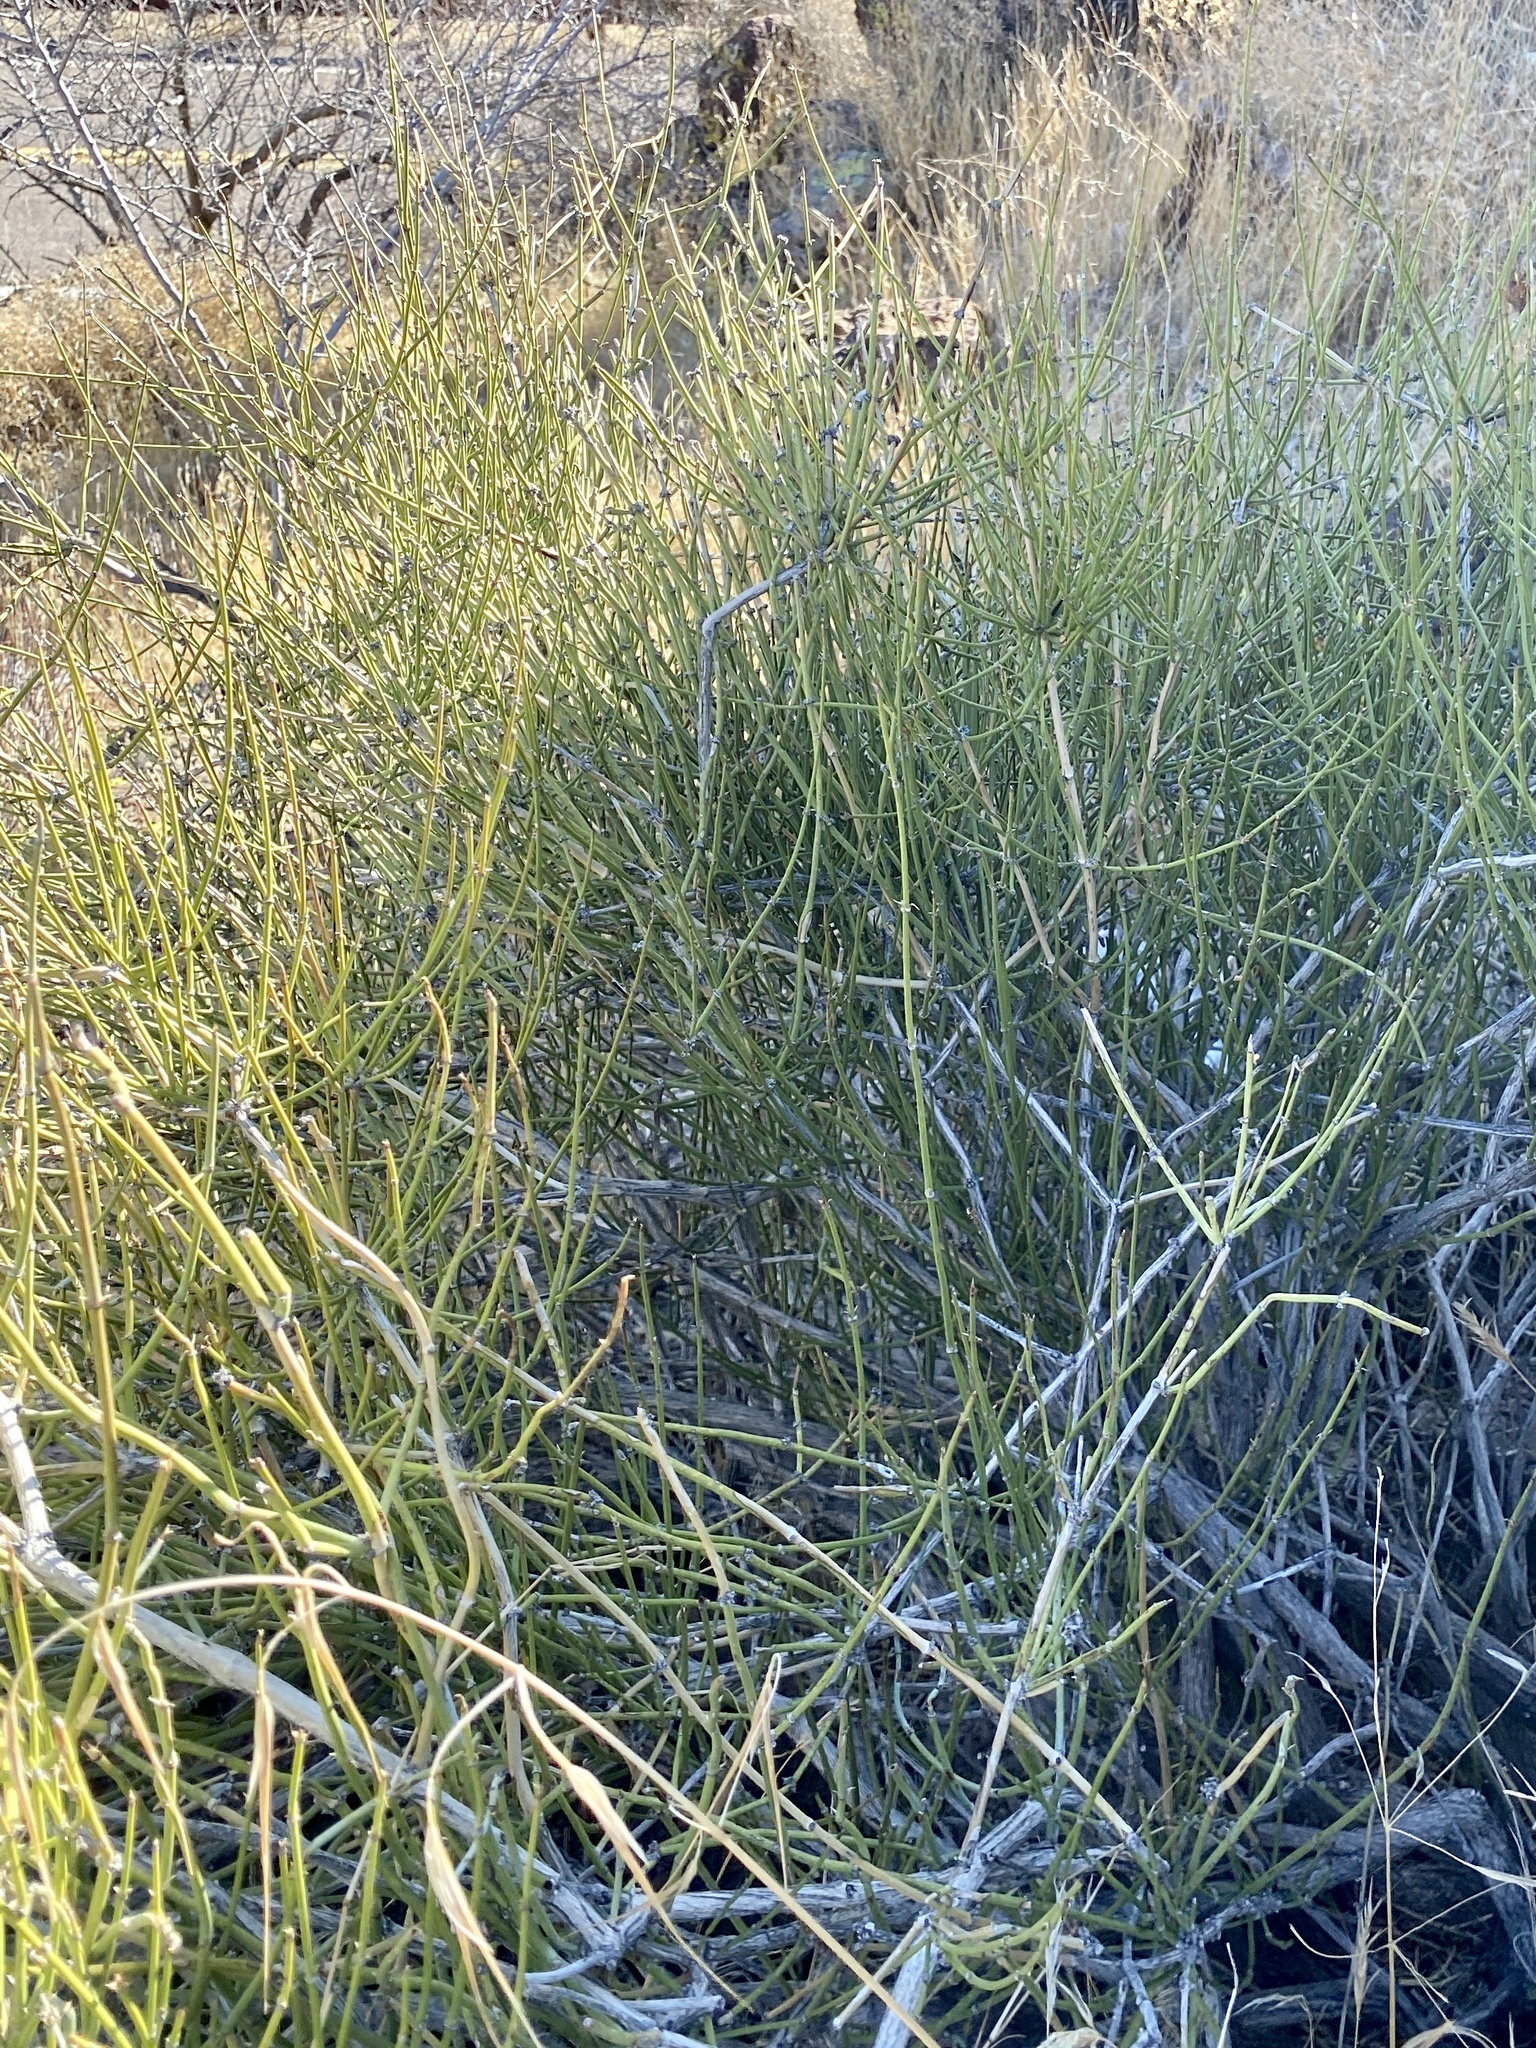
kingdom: Plantae
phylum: Tracheophyta
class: Gnetopsida
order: Ephedrales
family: Ephedraceae
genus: Ephedra
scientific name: Ephedra viridis
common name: Green ephedra
